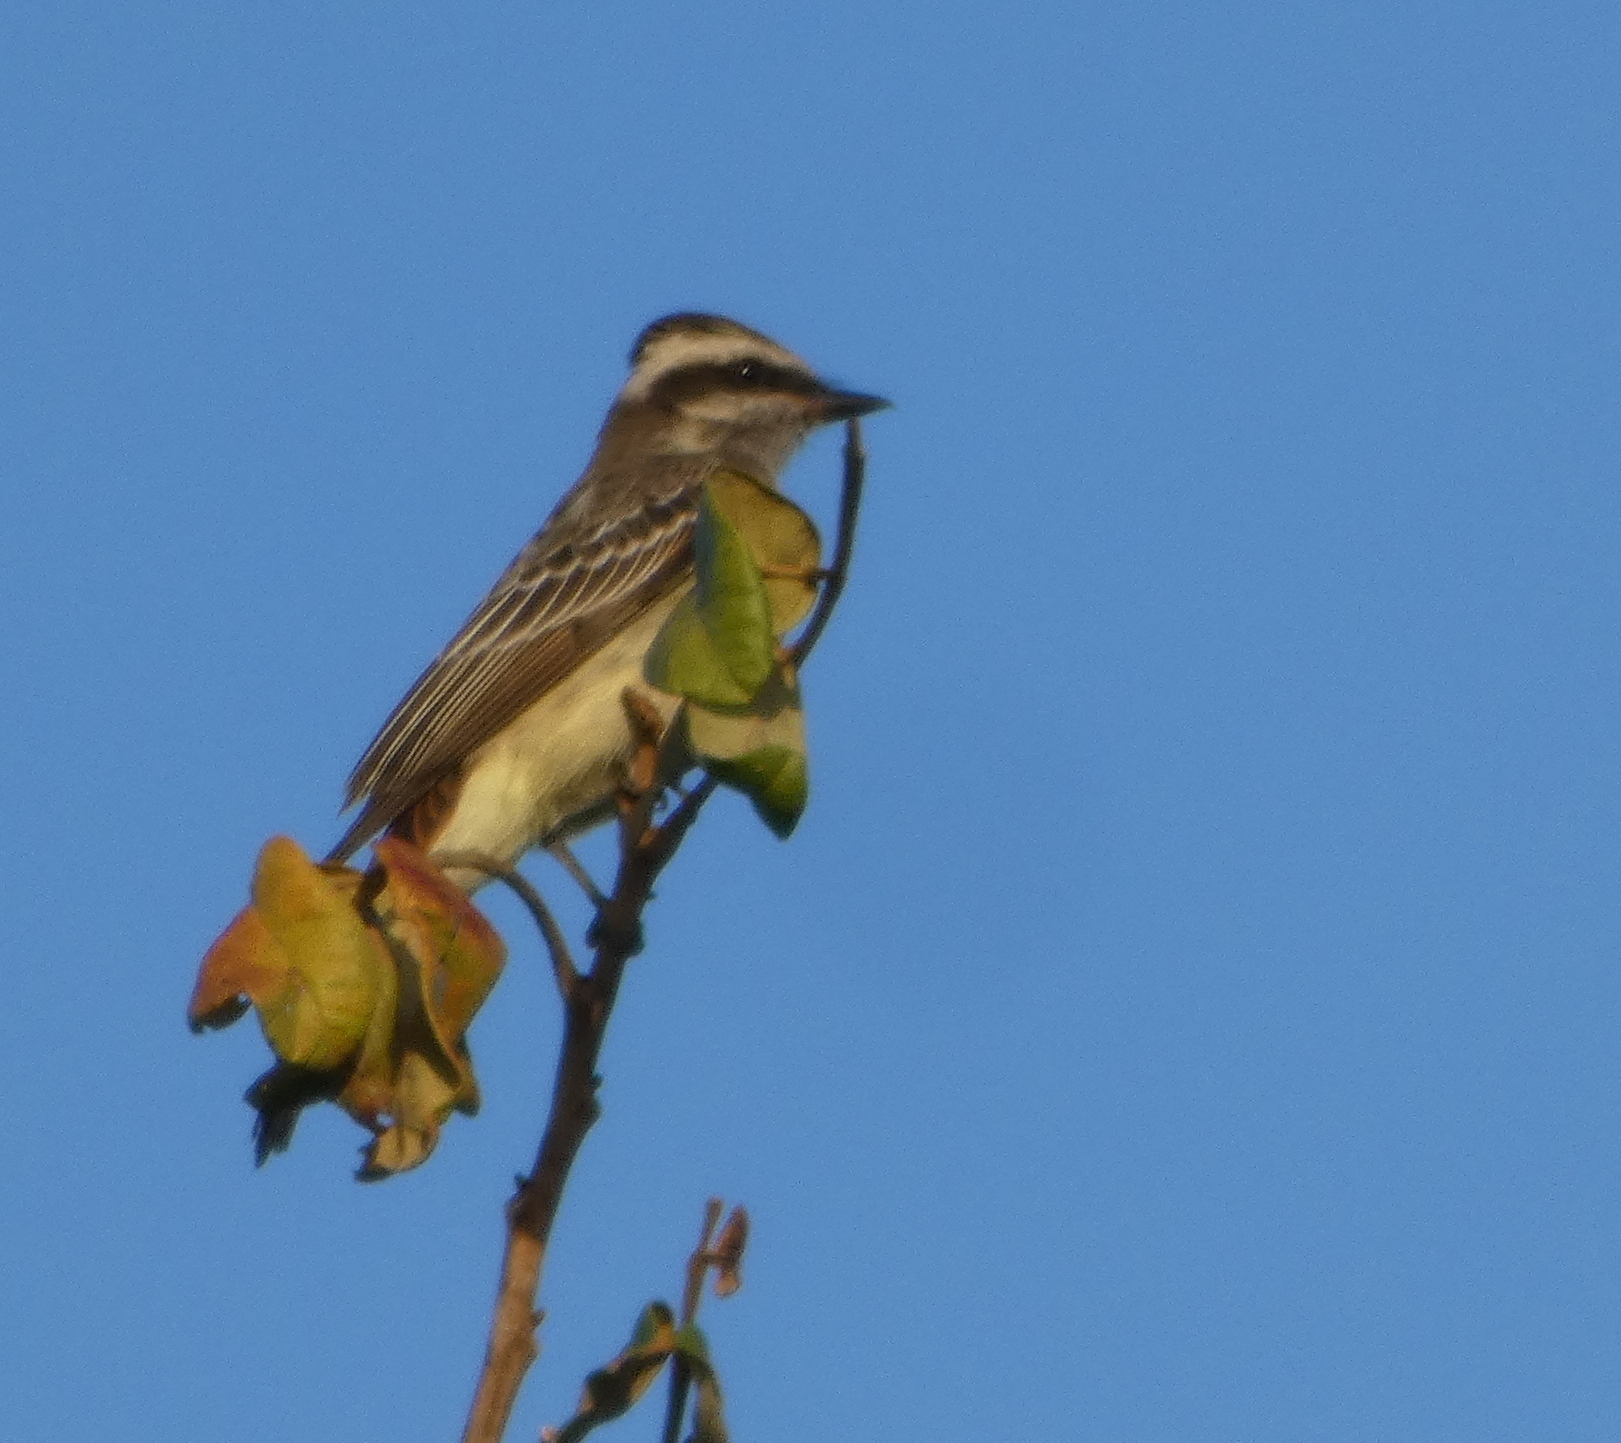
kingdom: Animalia
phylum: Chordata
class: Aves
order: Passeriformes
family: Tyrannidae
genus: Empidonomus
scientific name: Empidonomus varius
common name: Variegated flycatcher
